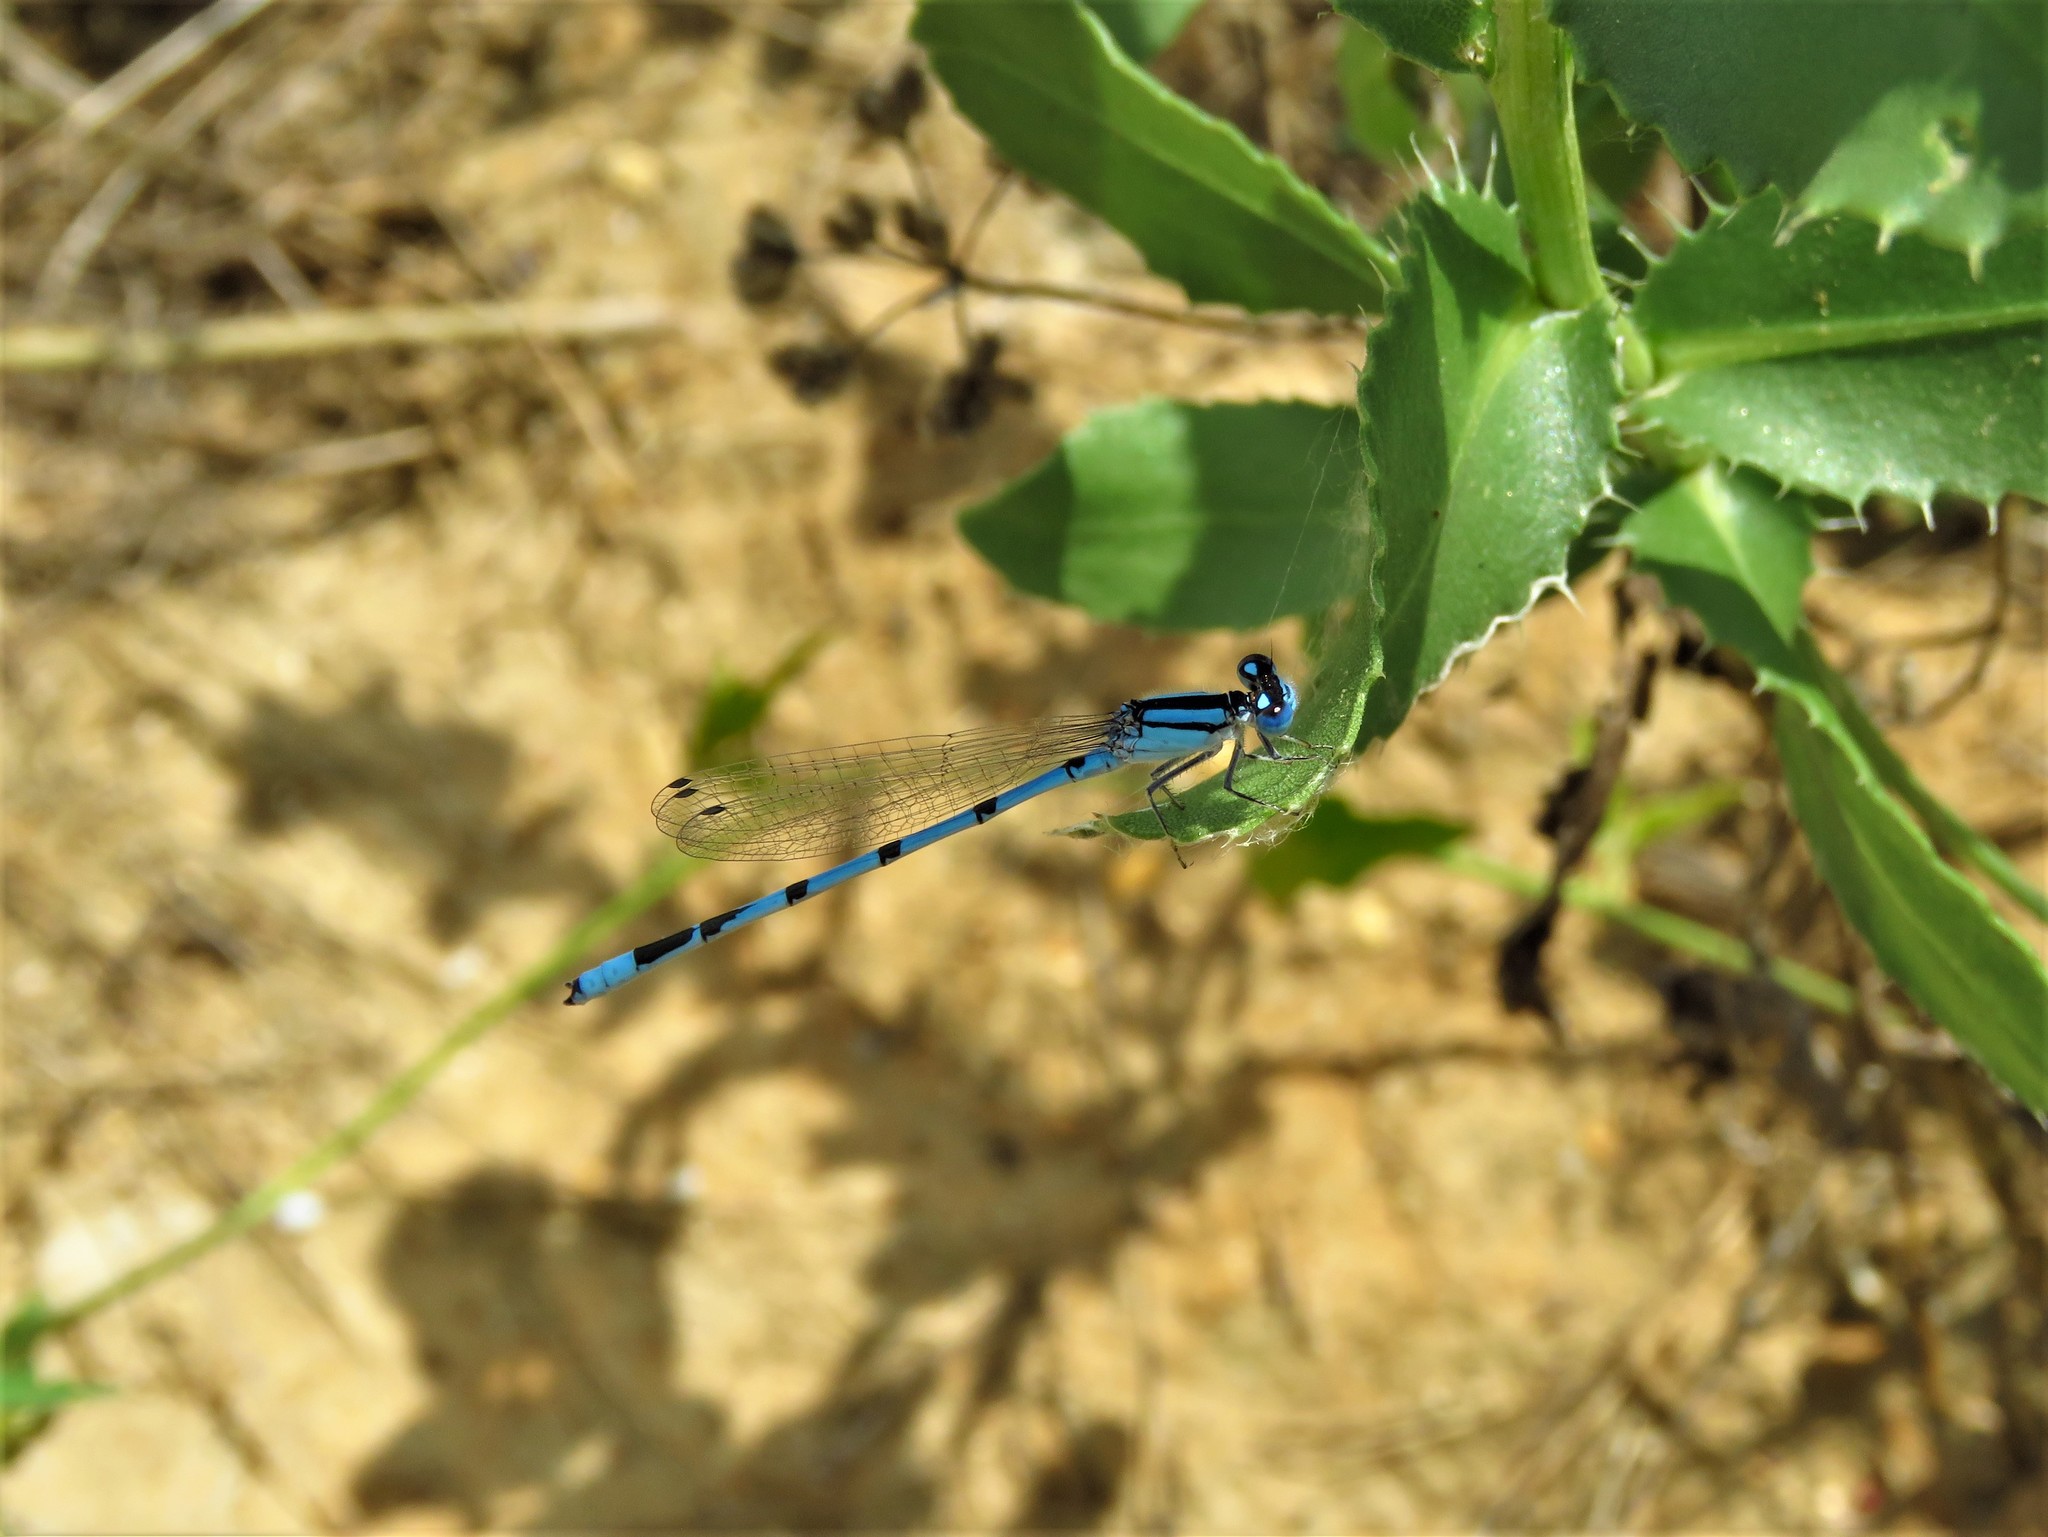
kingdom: Animalia
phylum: Arthropoda
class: Insecta
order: Odonata
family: Coenagrionidae
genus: Enallagma
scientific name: Enallagma civile
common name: Damselfly
